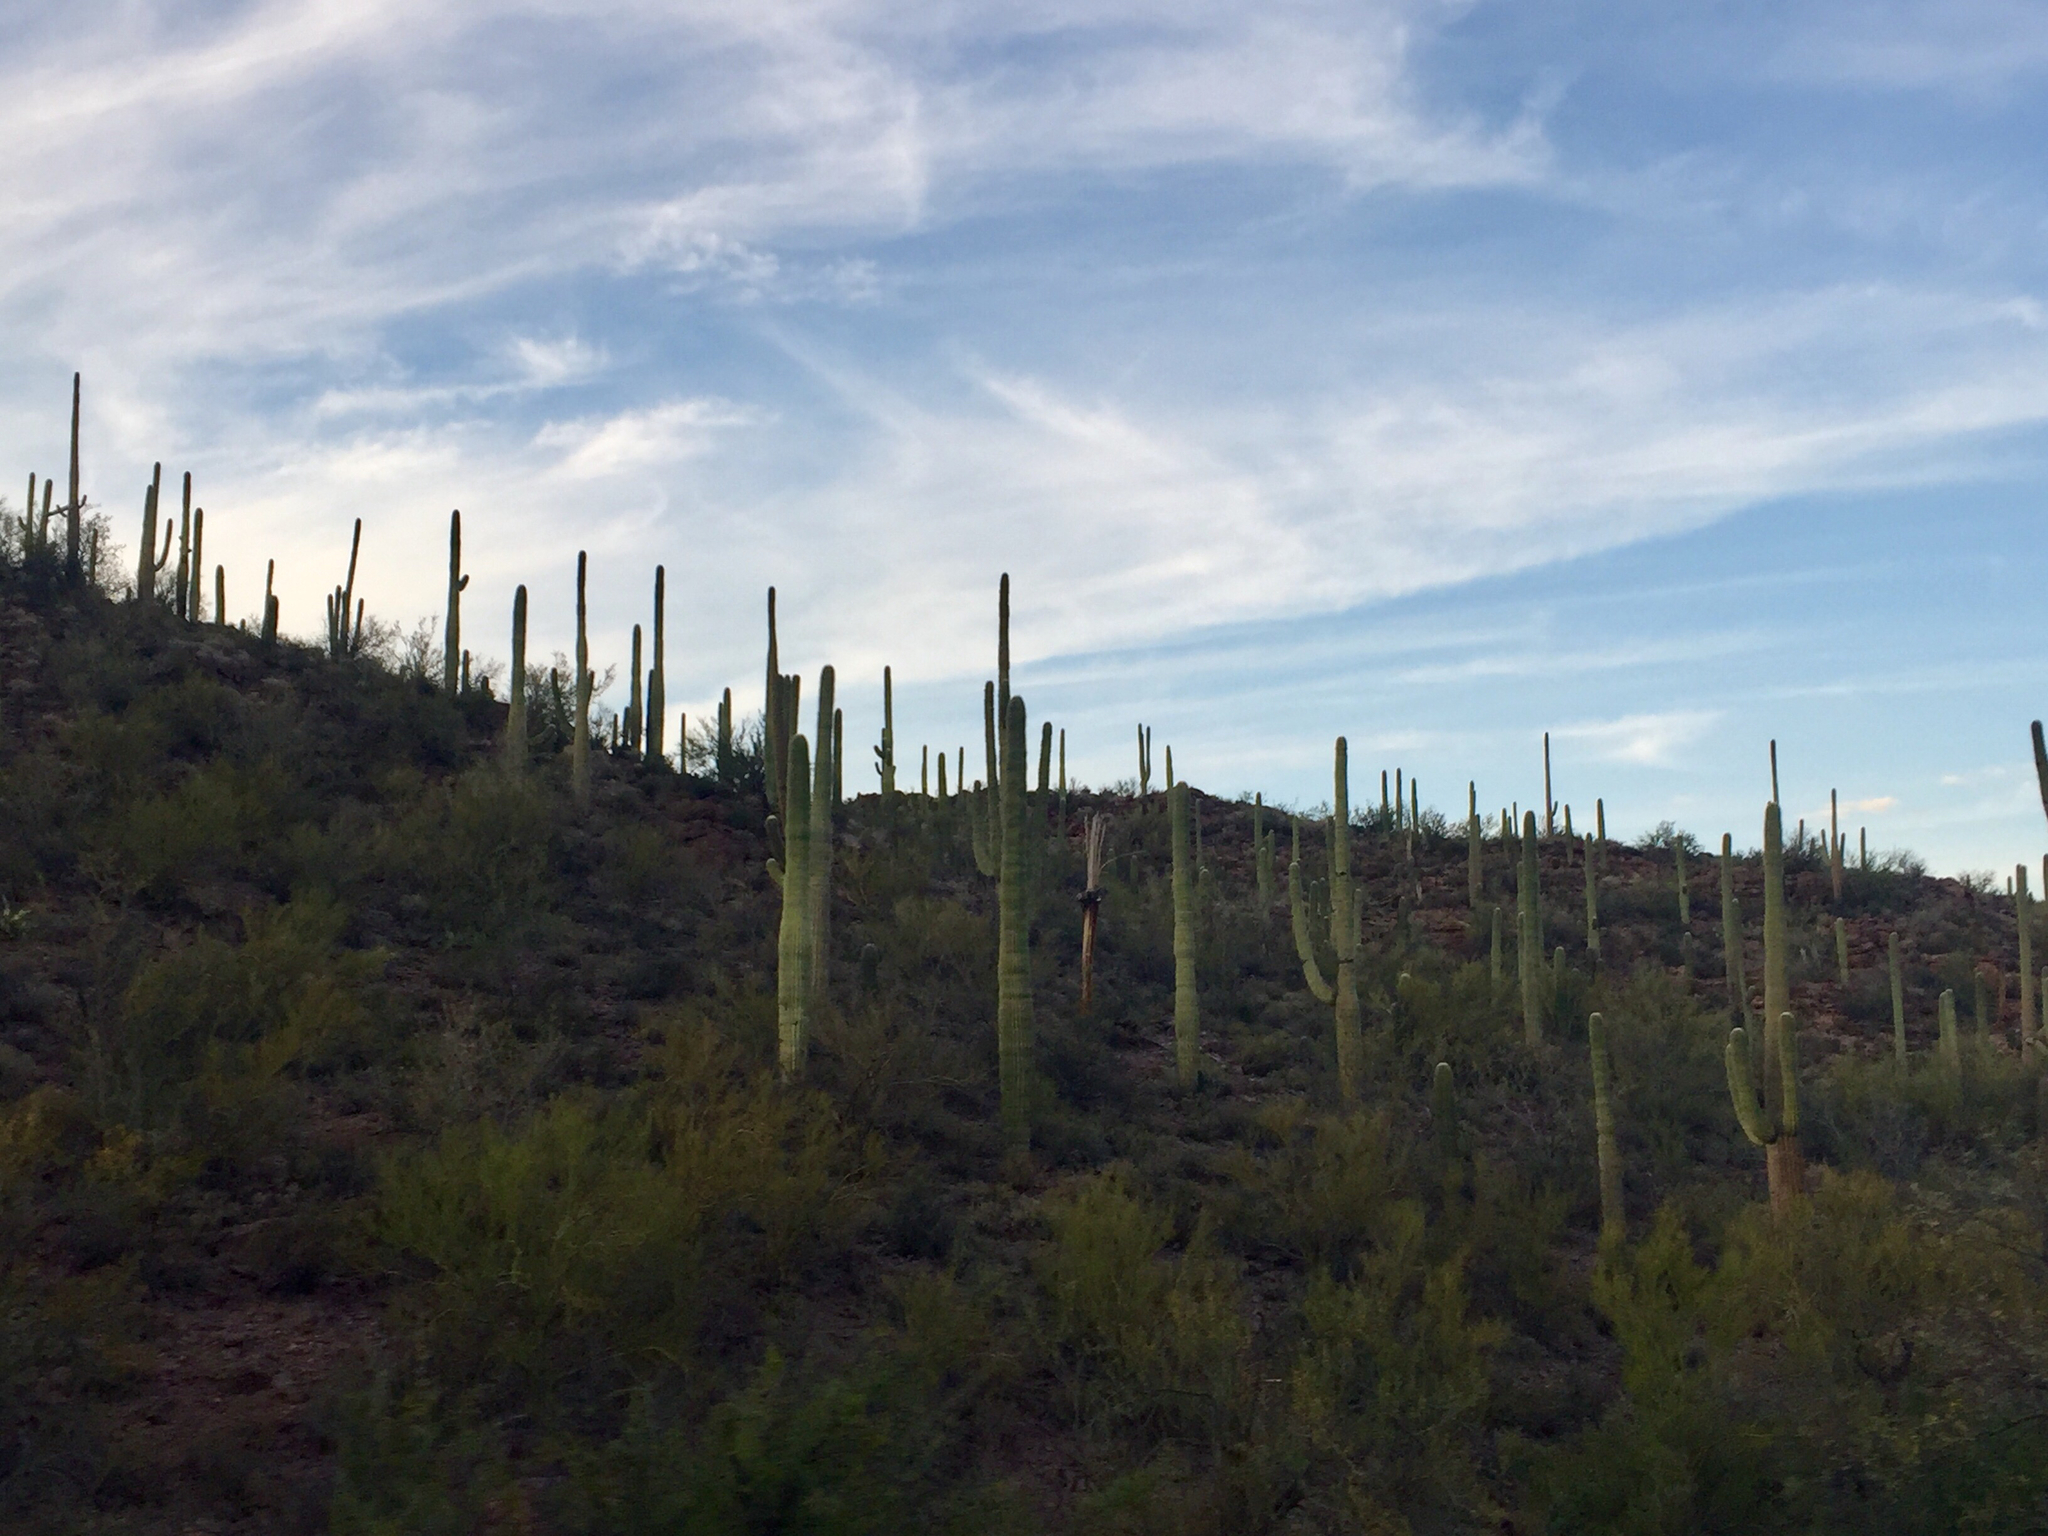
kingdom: Plantae
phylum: Tracheophyta
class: Magnoliopsida
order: Caryophyllales
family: Cactaceae
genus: Carnegiea
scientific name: Carnegiea gigantea
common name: Saguaro
